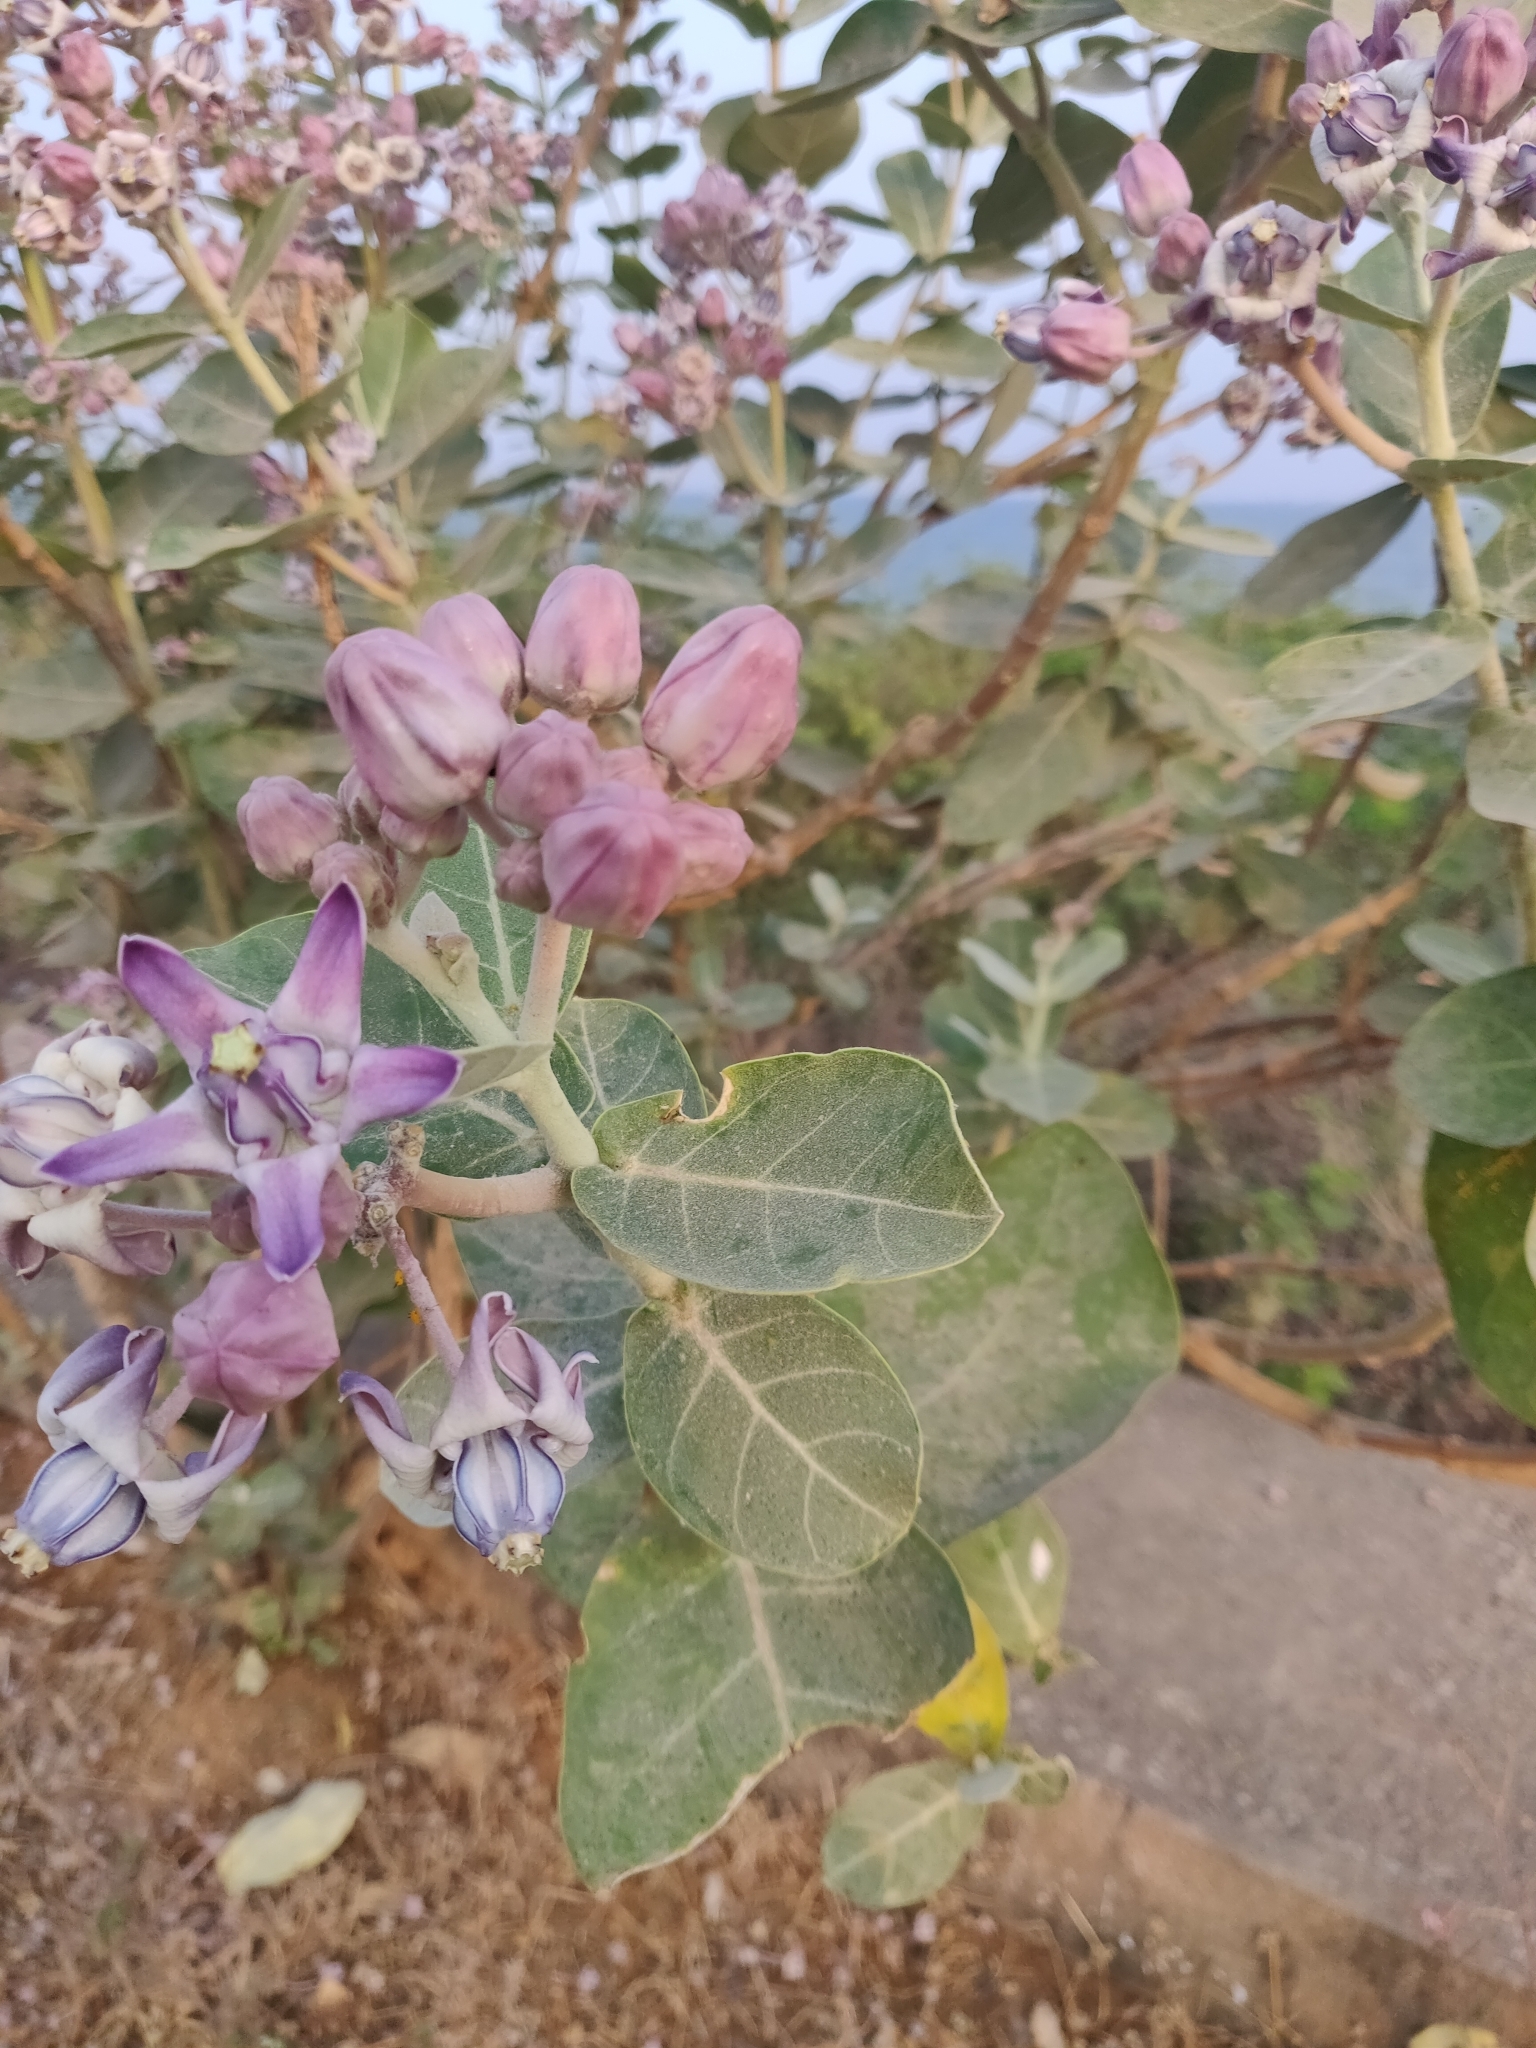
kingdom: Plantae
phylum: Tracheophyta
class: Magnoliopsida
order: Gentianales
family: Apocynaceae
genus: Calotropis
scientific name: Calotropis gigantea
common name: Crown flower
